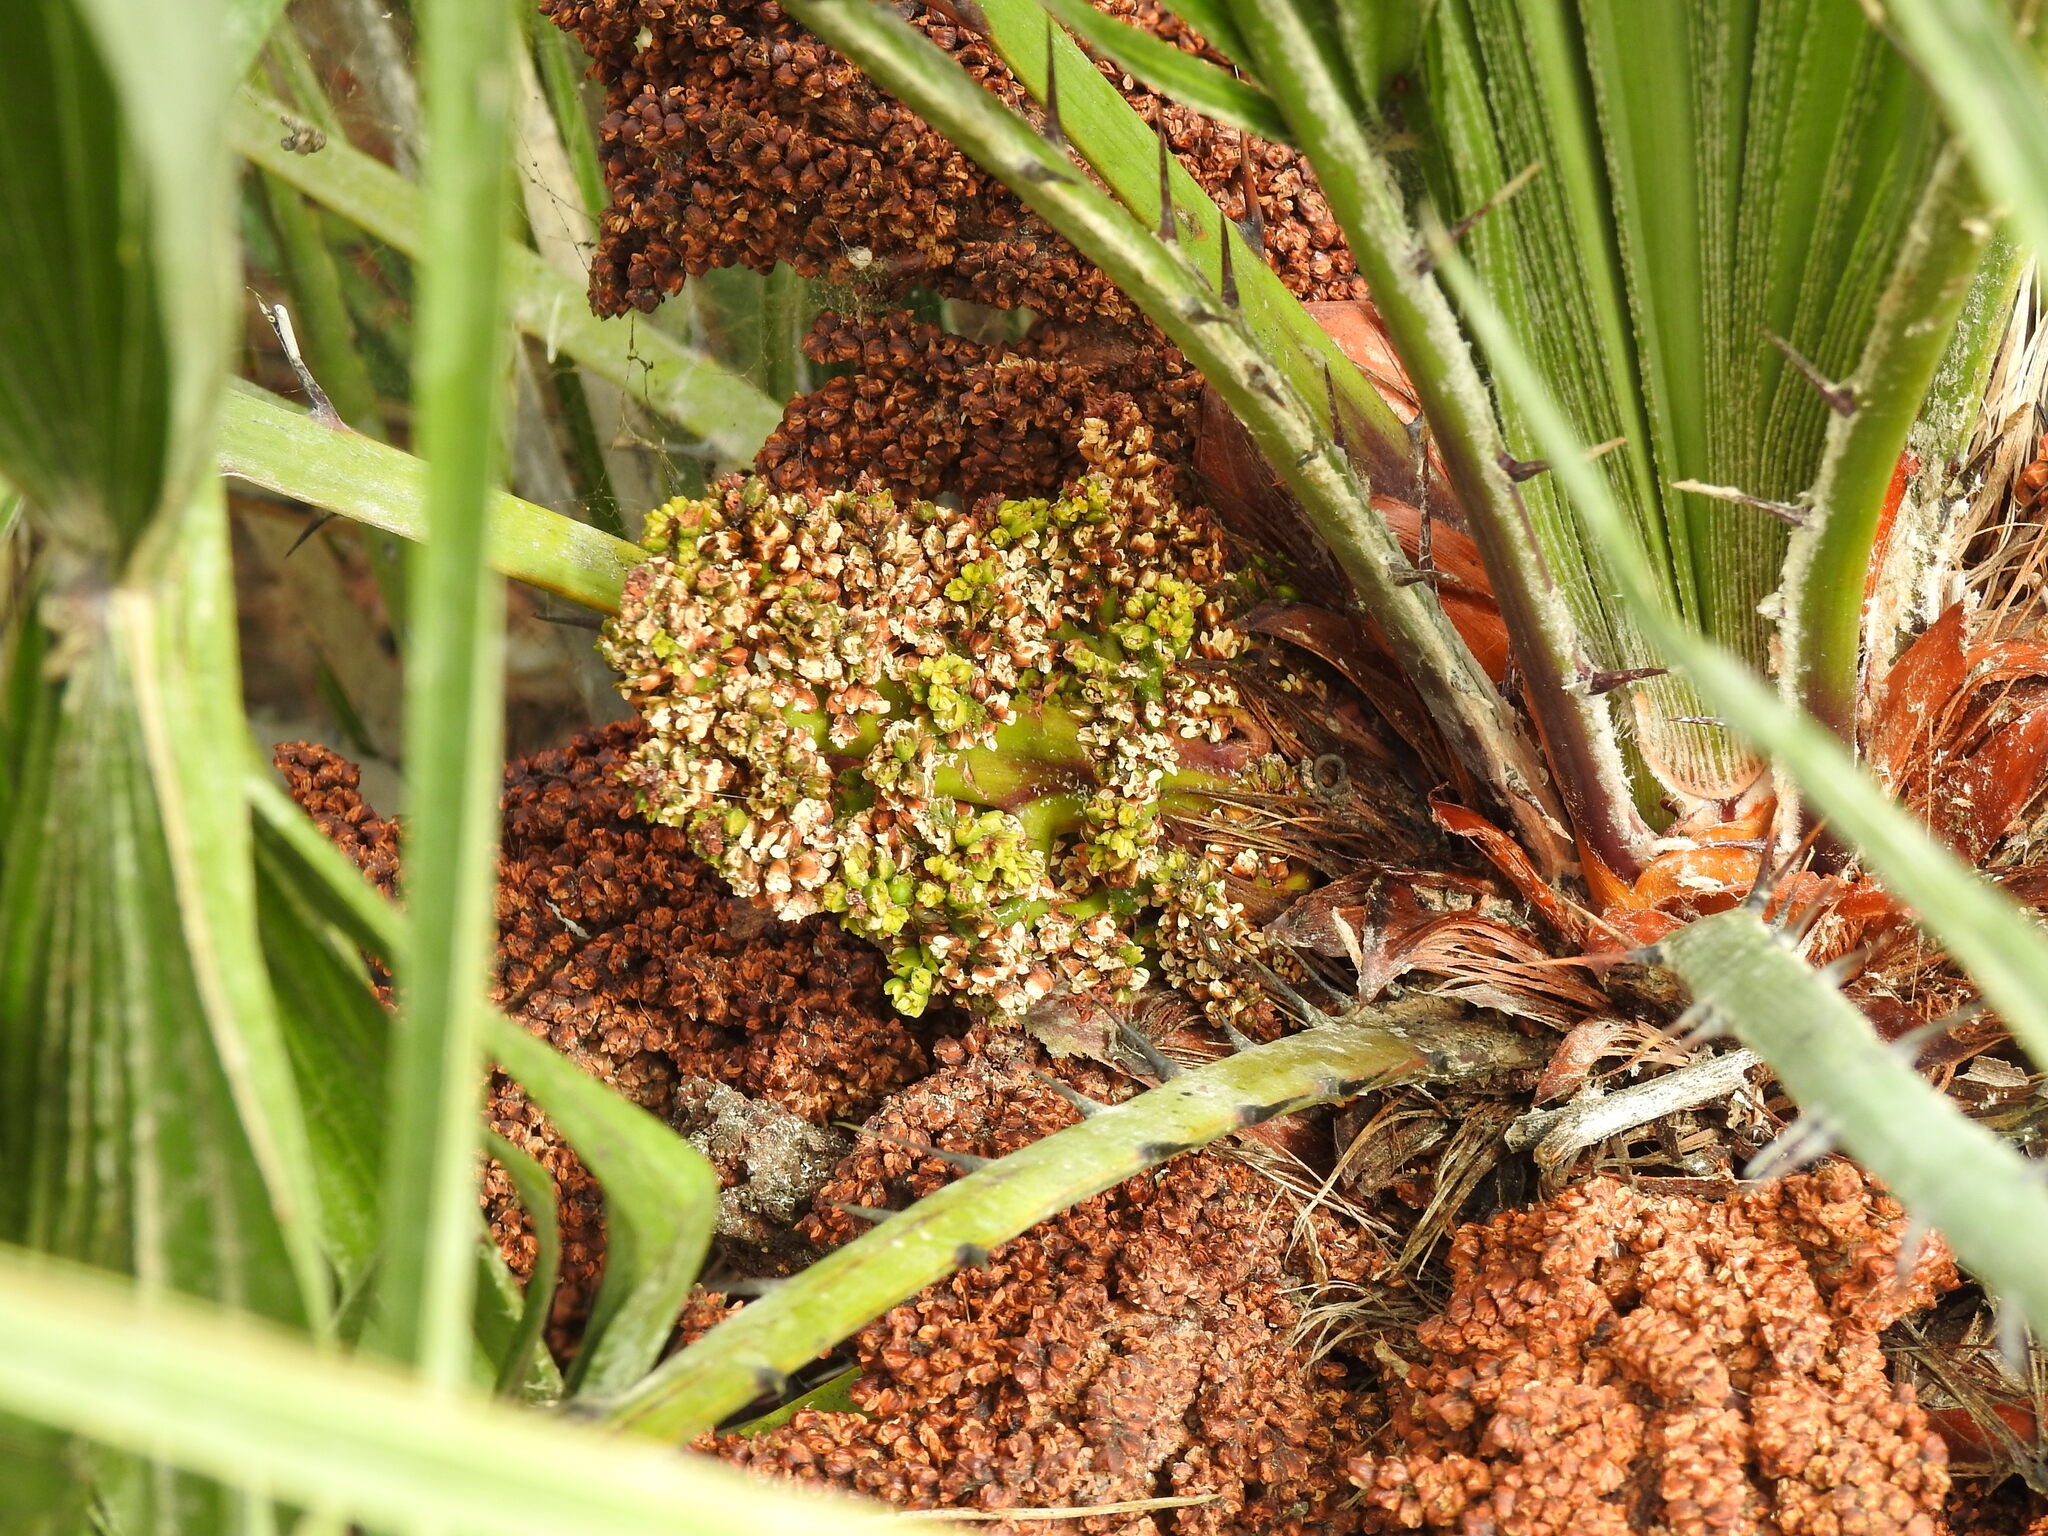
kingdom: Plantae
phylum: Tracheophyta
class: Liliopsida
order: Arecales
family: Arecaceae
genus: Chamaerops
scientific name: Chamaerops humilis
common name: Dwarf fan palm
